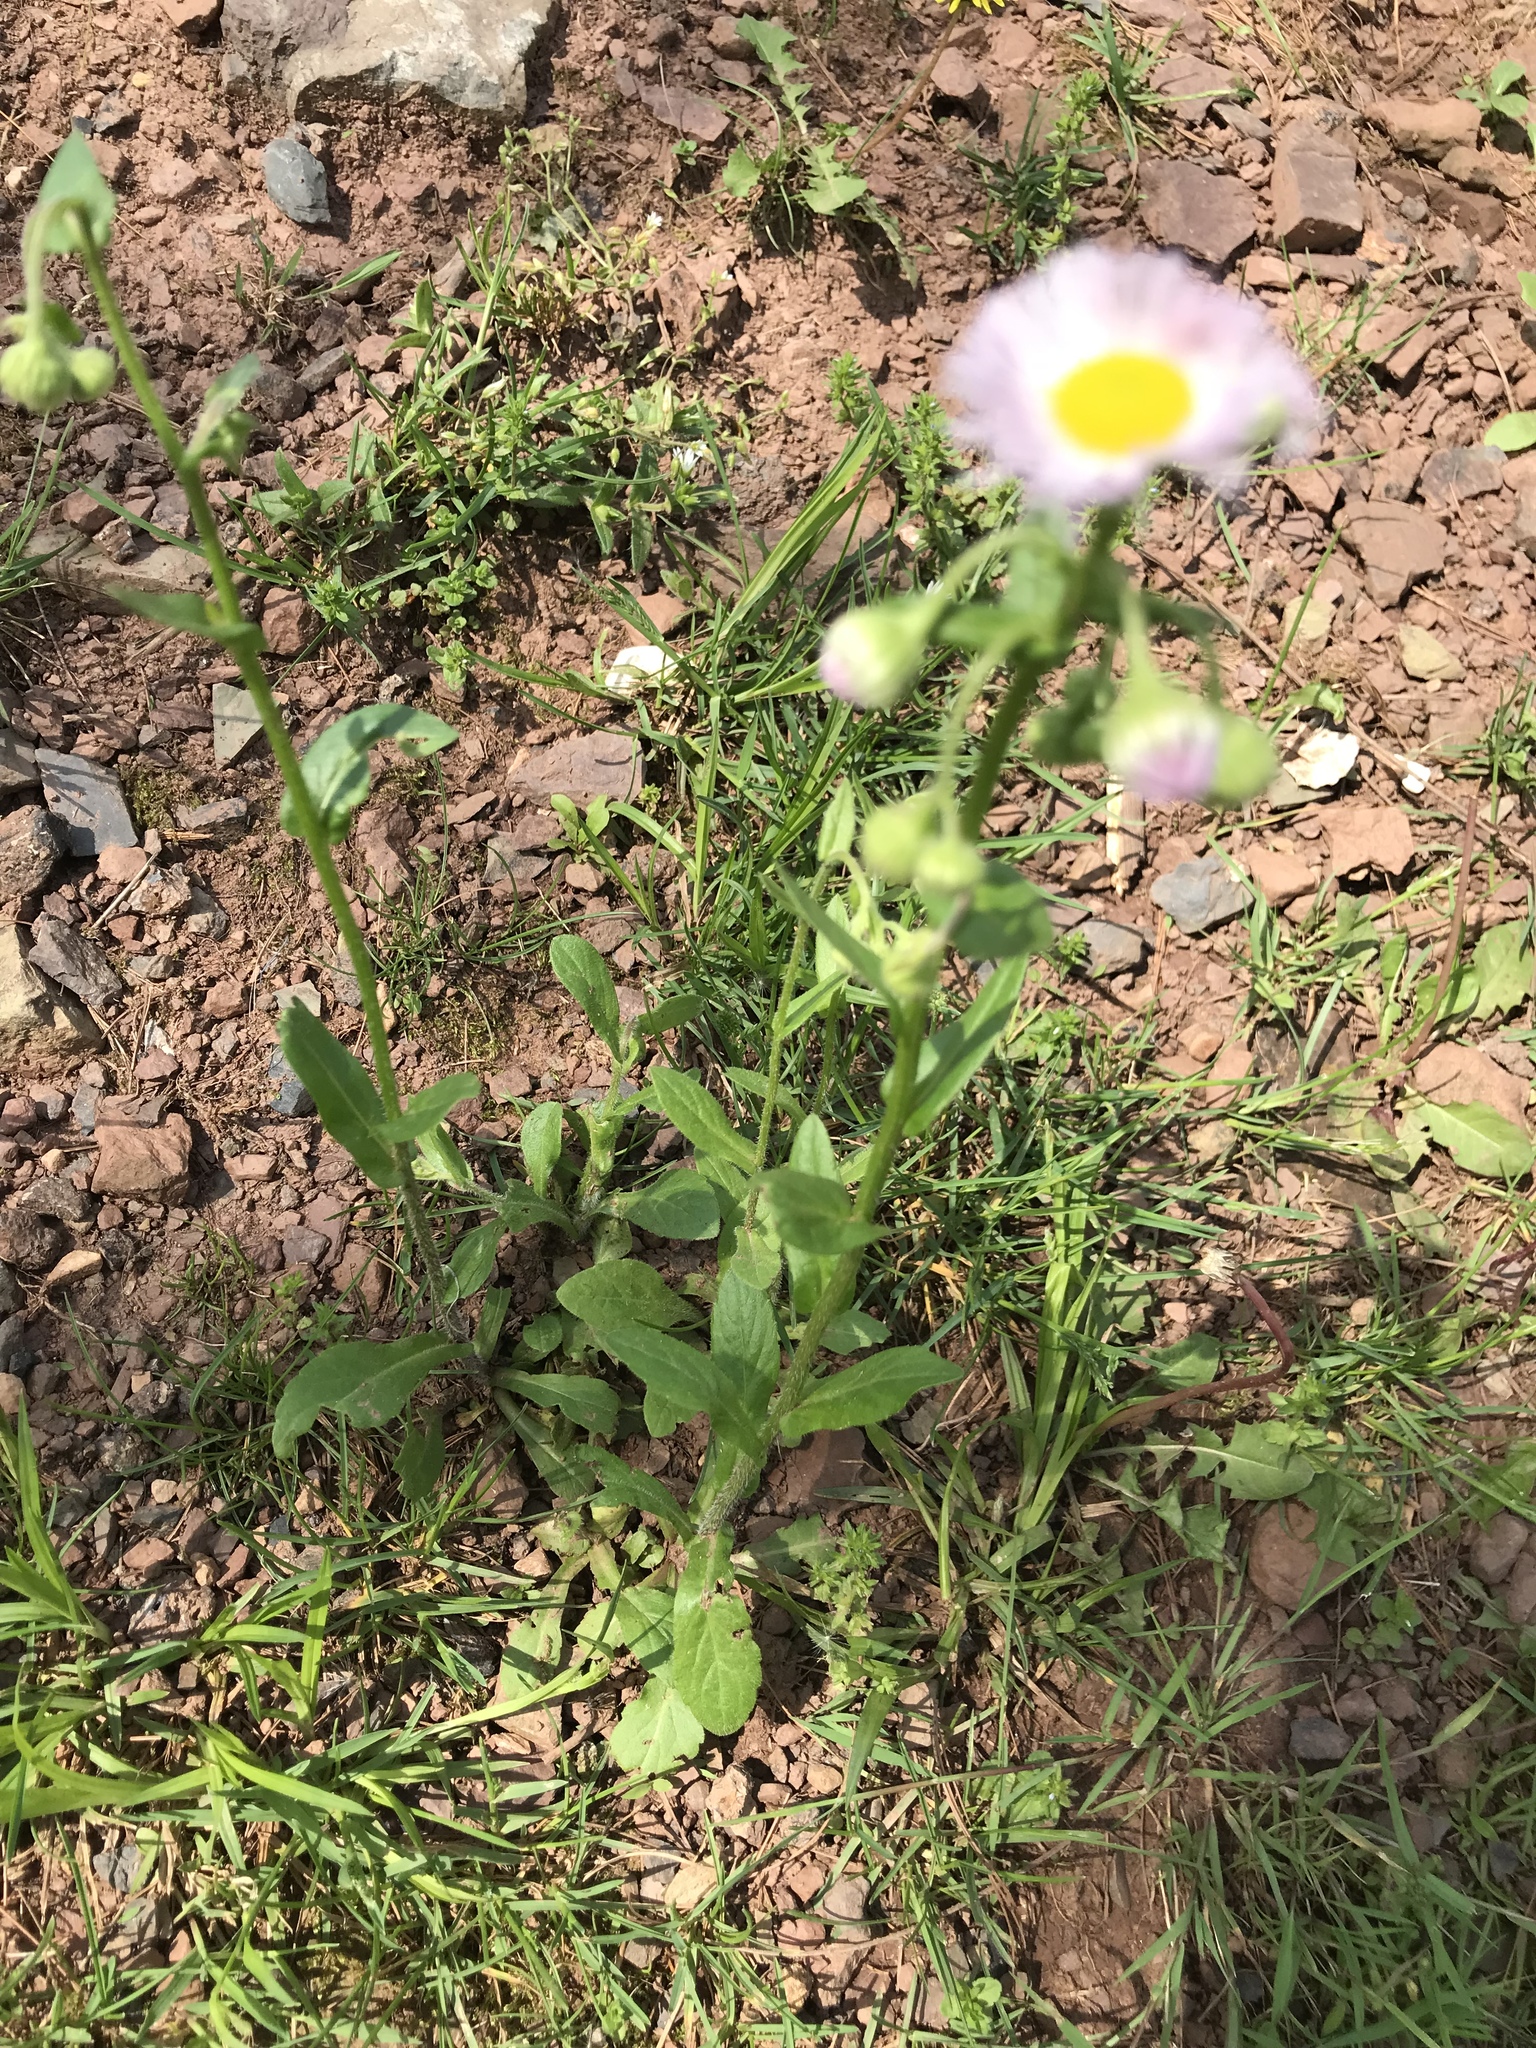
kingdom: Plantae
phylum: Tracheophyta
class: Magnoliopsida
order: Asterales
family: Asteraceae
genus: Erigeron
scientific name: Erigeron philadelphicus
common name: Robin's-plantain
